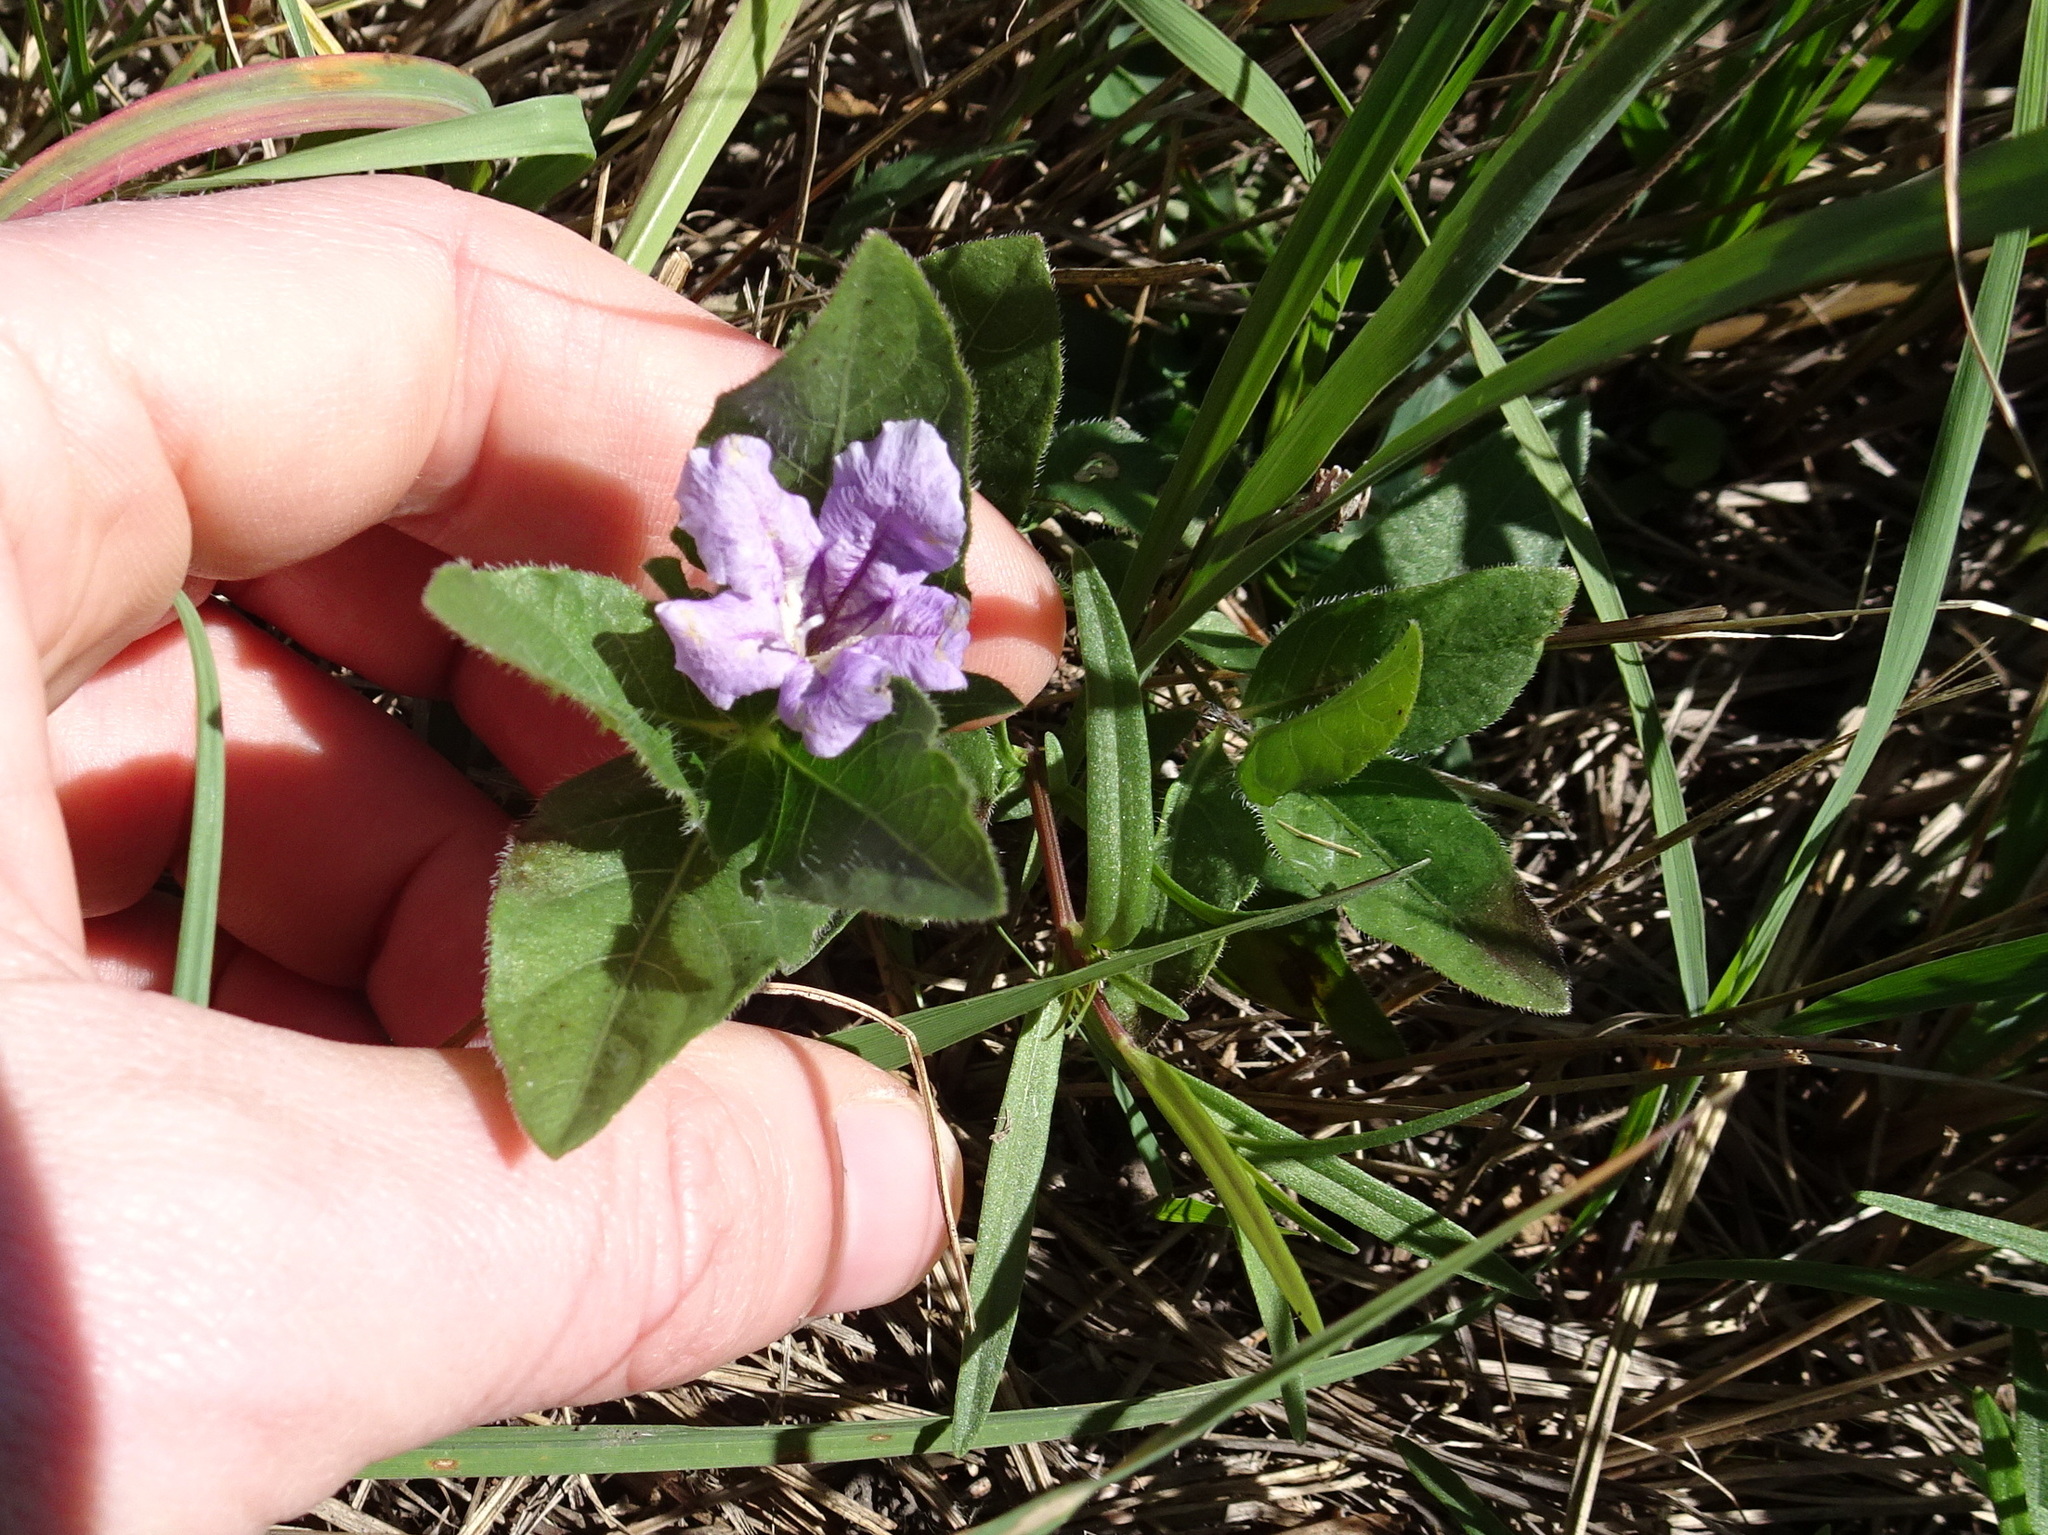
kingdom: Plantae
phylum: Tracheophyta
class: Magnoliopsida
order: Lamiales
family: Acanthaceae
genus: Ruellia
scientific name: Ruellia humilis
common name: Fringe-leaf ruellia
